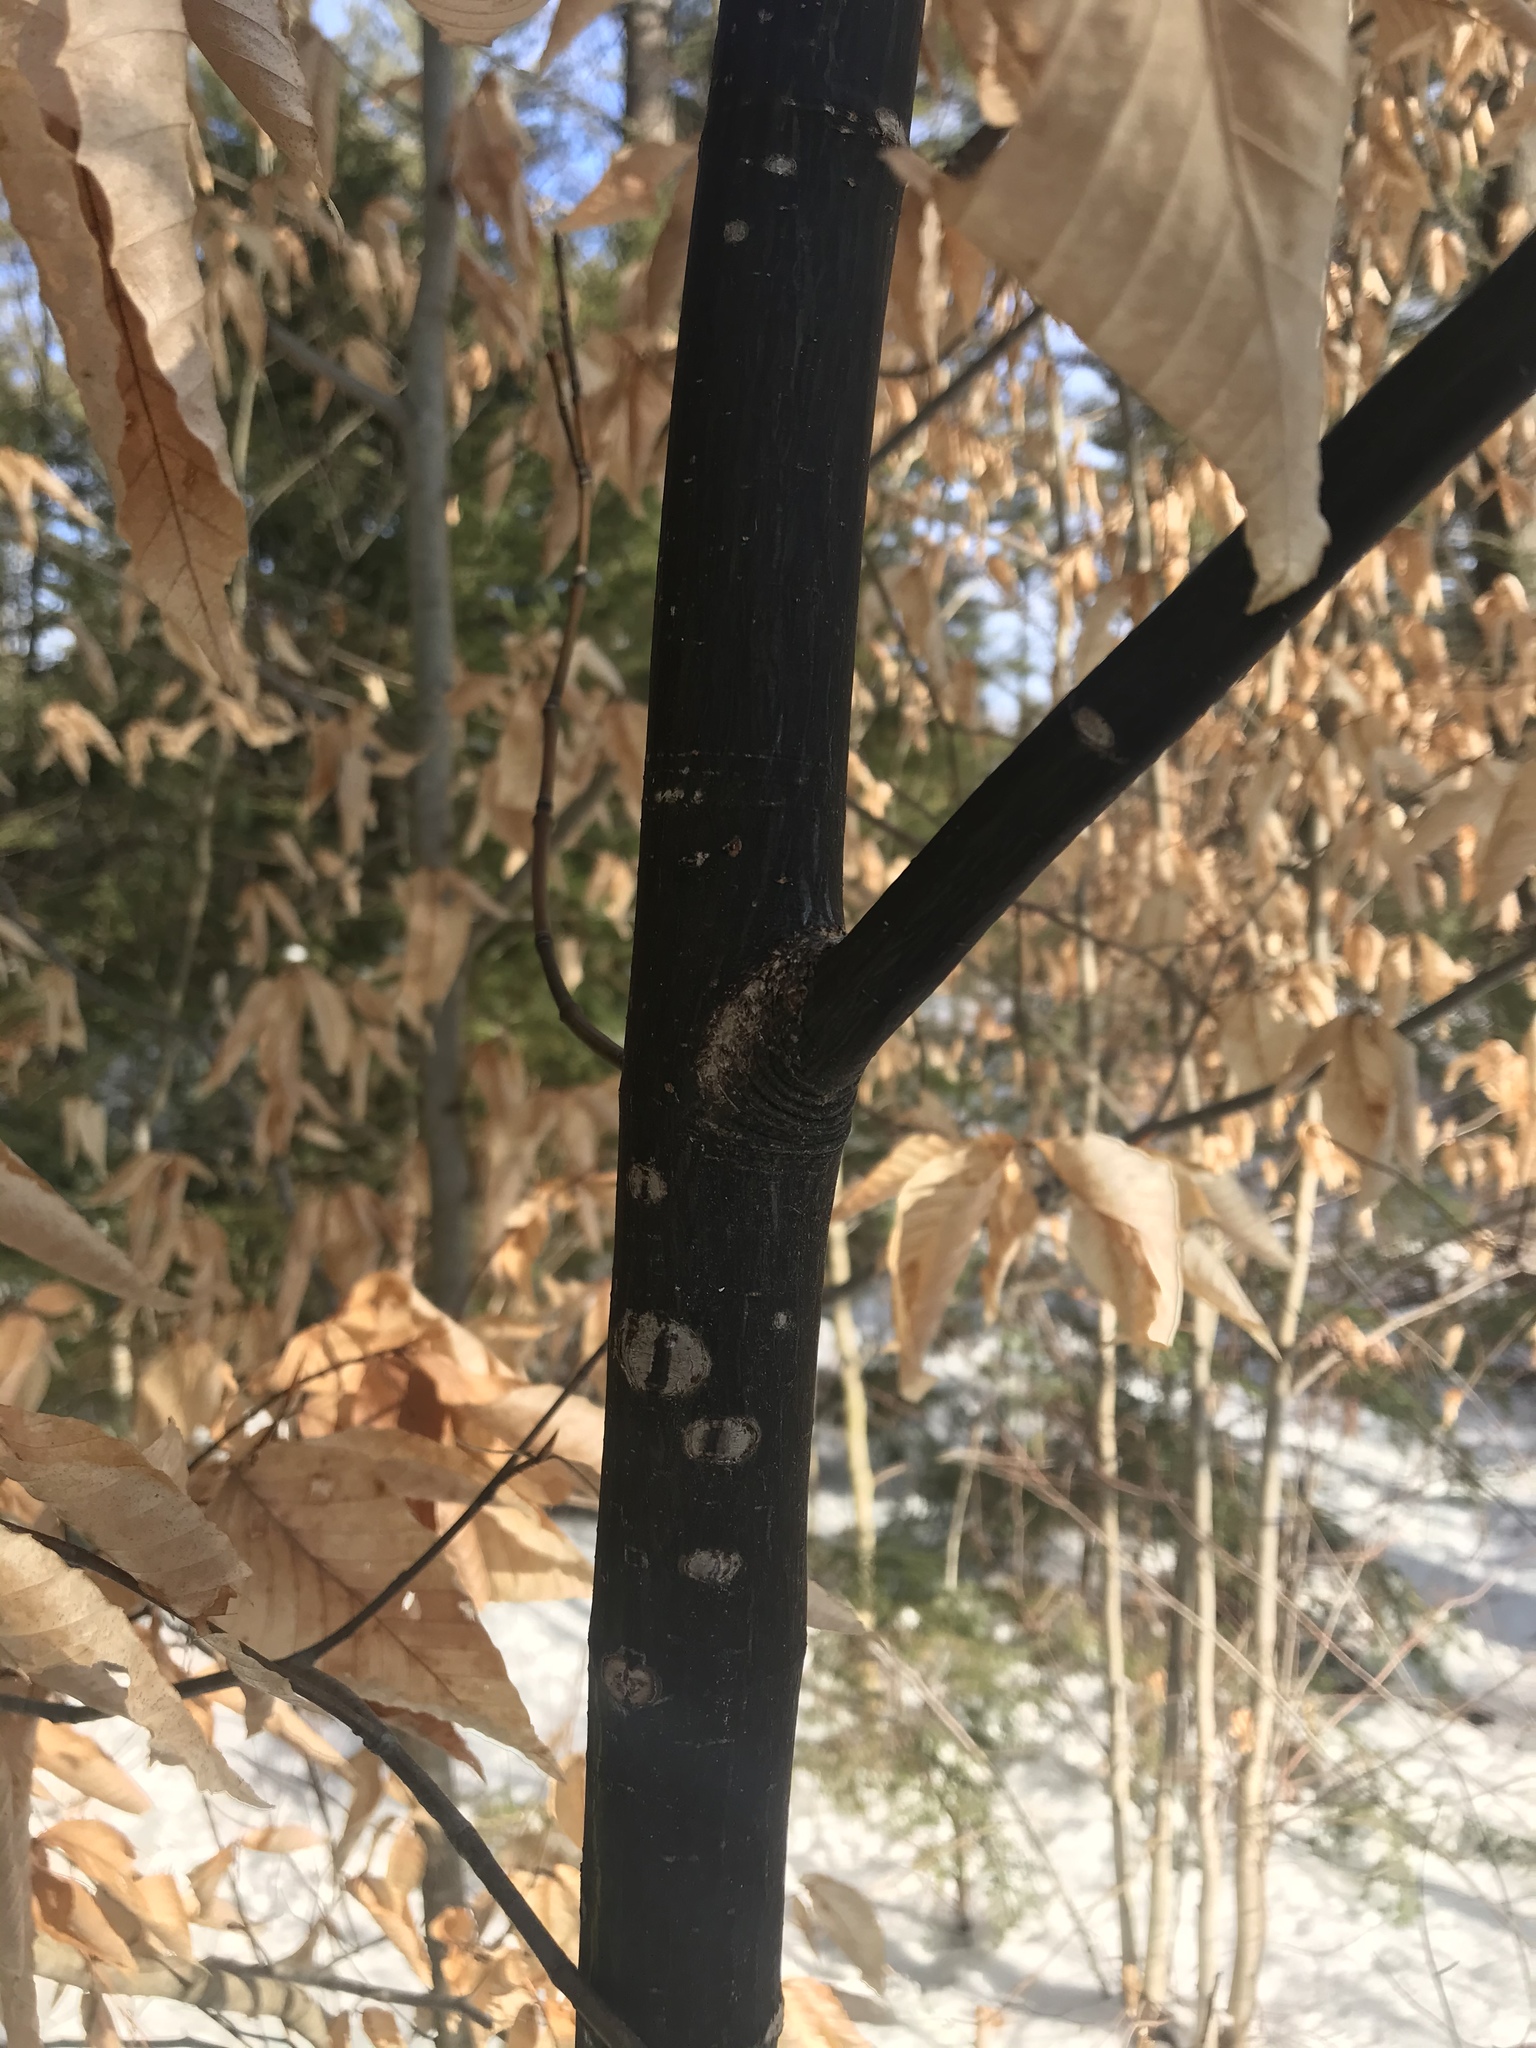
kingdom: Plantae
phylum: Tracheophyta
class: Magnoliopsida
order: Sapindales
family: Sapindaceae
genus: Acer
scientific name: Acer pensylvanicum
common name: Moosewood
